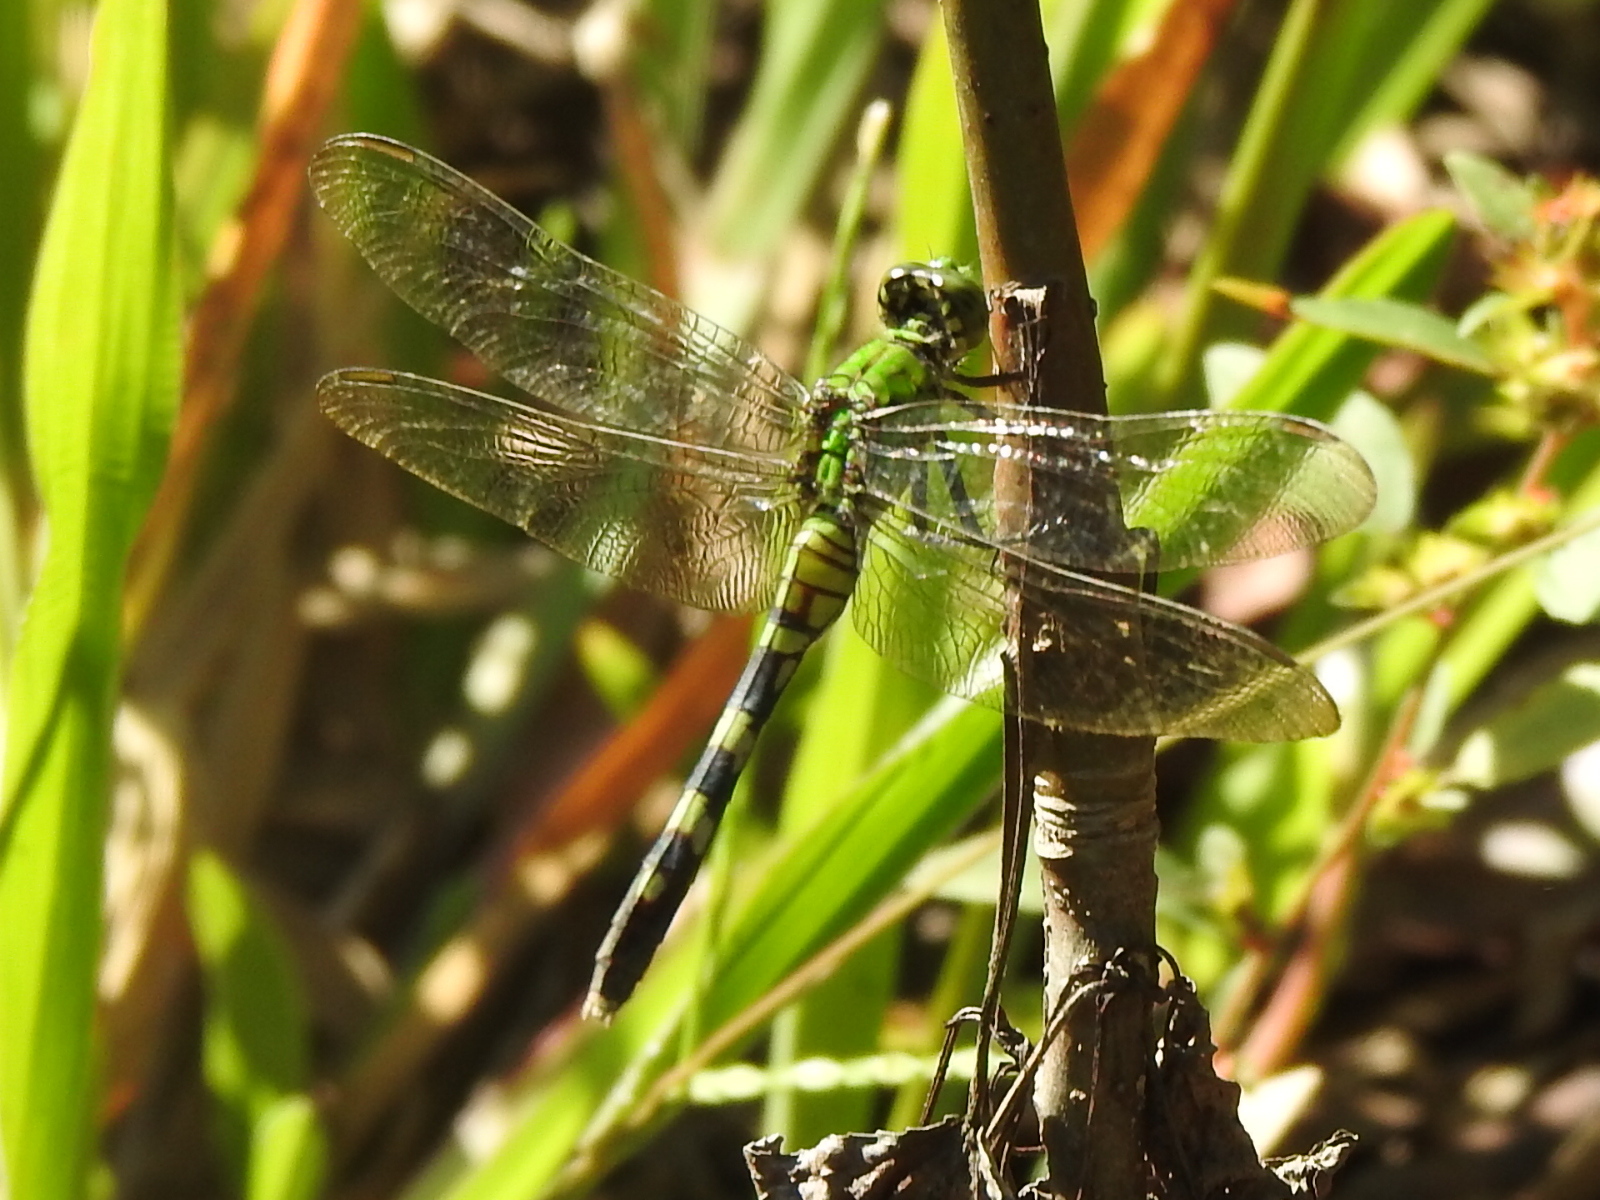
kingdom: Animalia
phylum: Arthropoda
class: Insecta
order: Odonata
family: Libellulidae
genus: Erythemis
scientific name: Erythemis simplicicollis
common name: Eastern pondhawk
